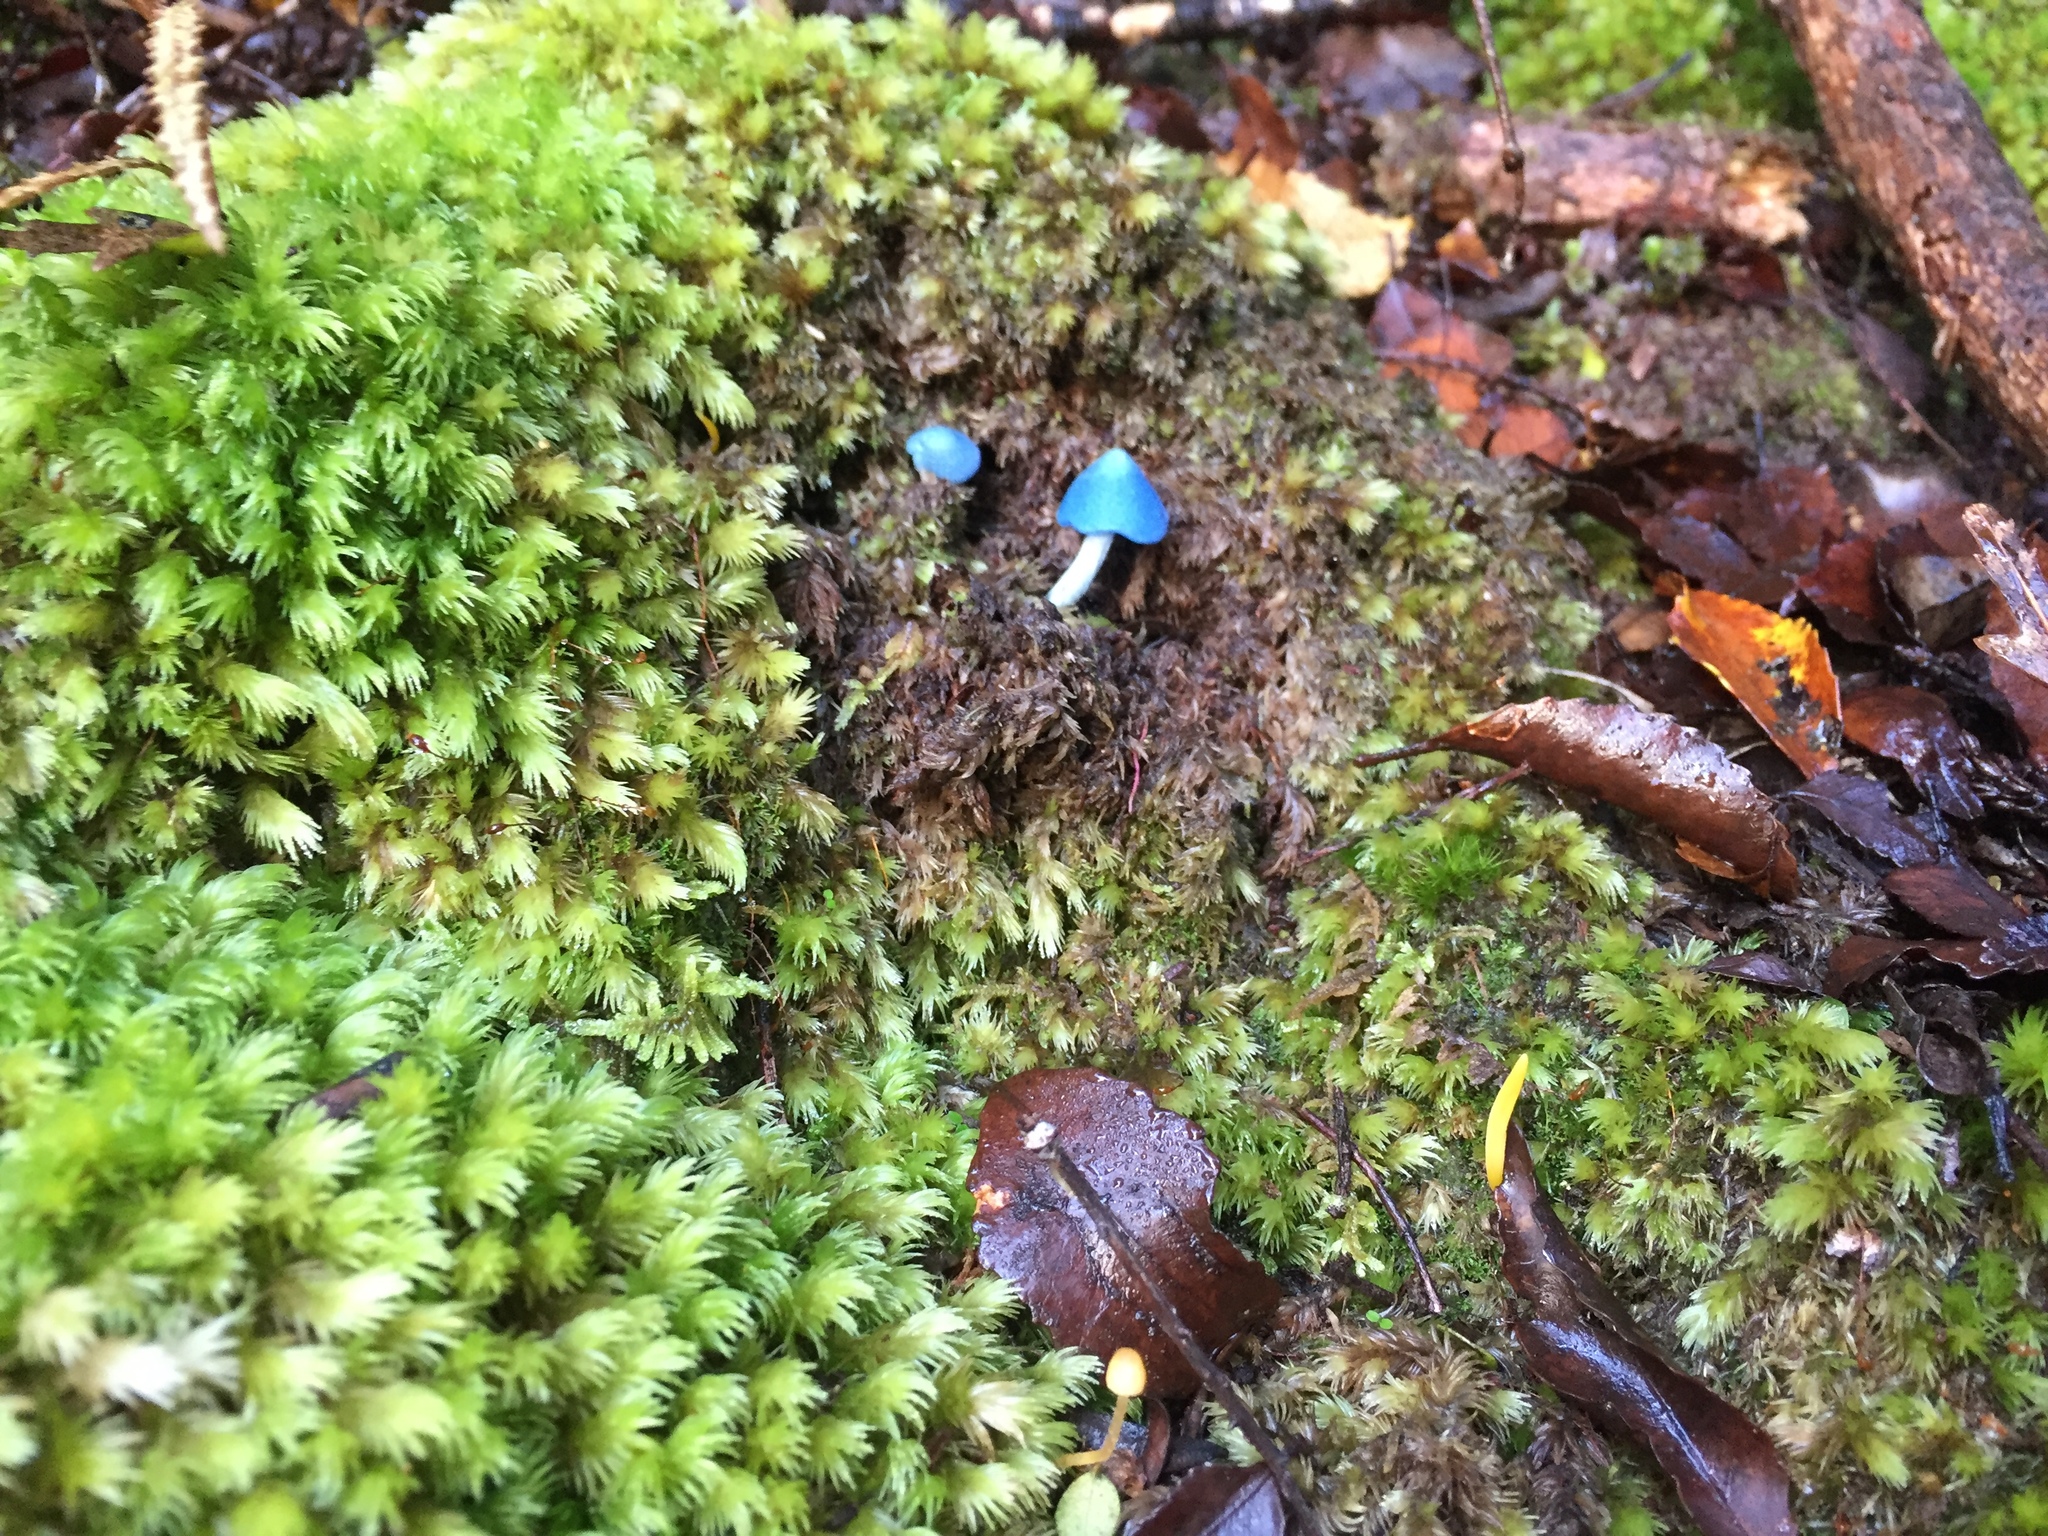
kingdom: Fungi
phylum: Basidiomycota
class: Agaricomycetes
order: Agaricales
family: Entolomataceae
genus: Entoloma
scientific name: Entoloma hochstetteri
